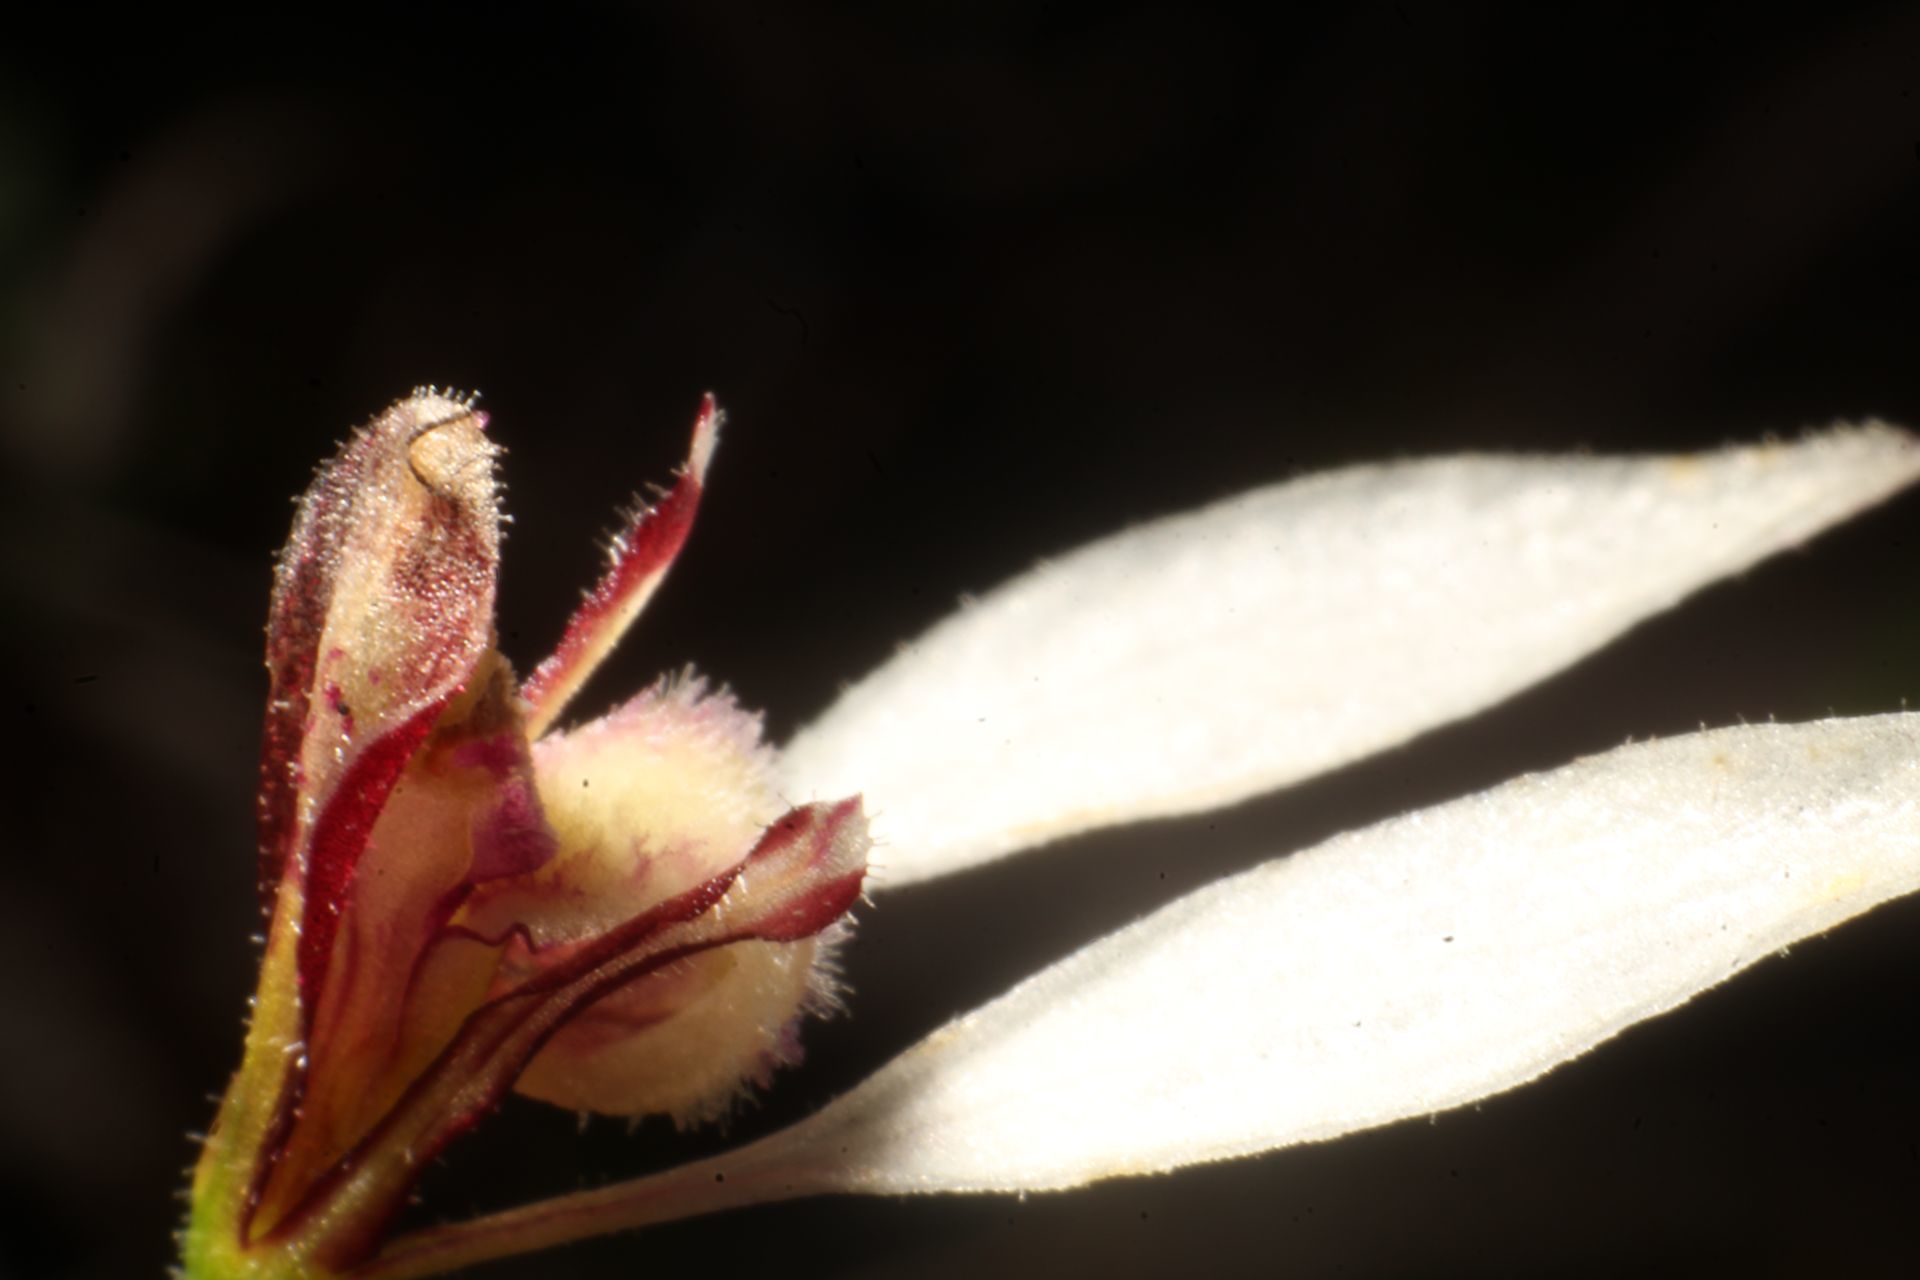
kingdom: Plantae
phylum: Tracheophyta
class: Liliopsida
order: Asparagales
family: Orchidaceae
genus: Eriochilus
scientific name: Eriochilus dilatatus
